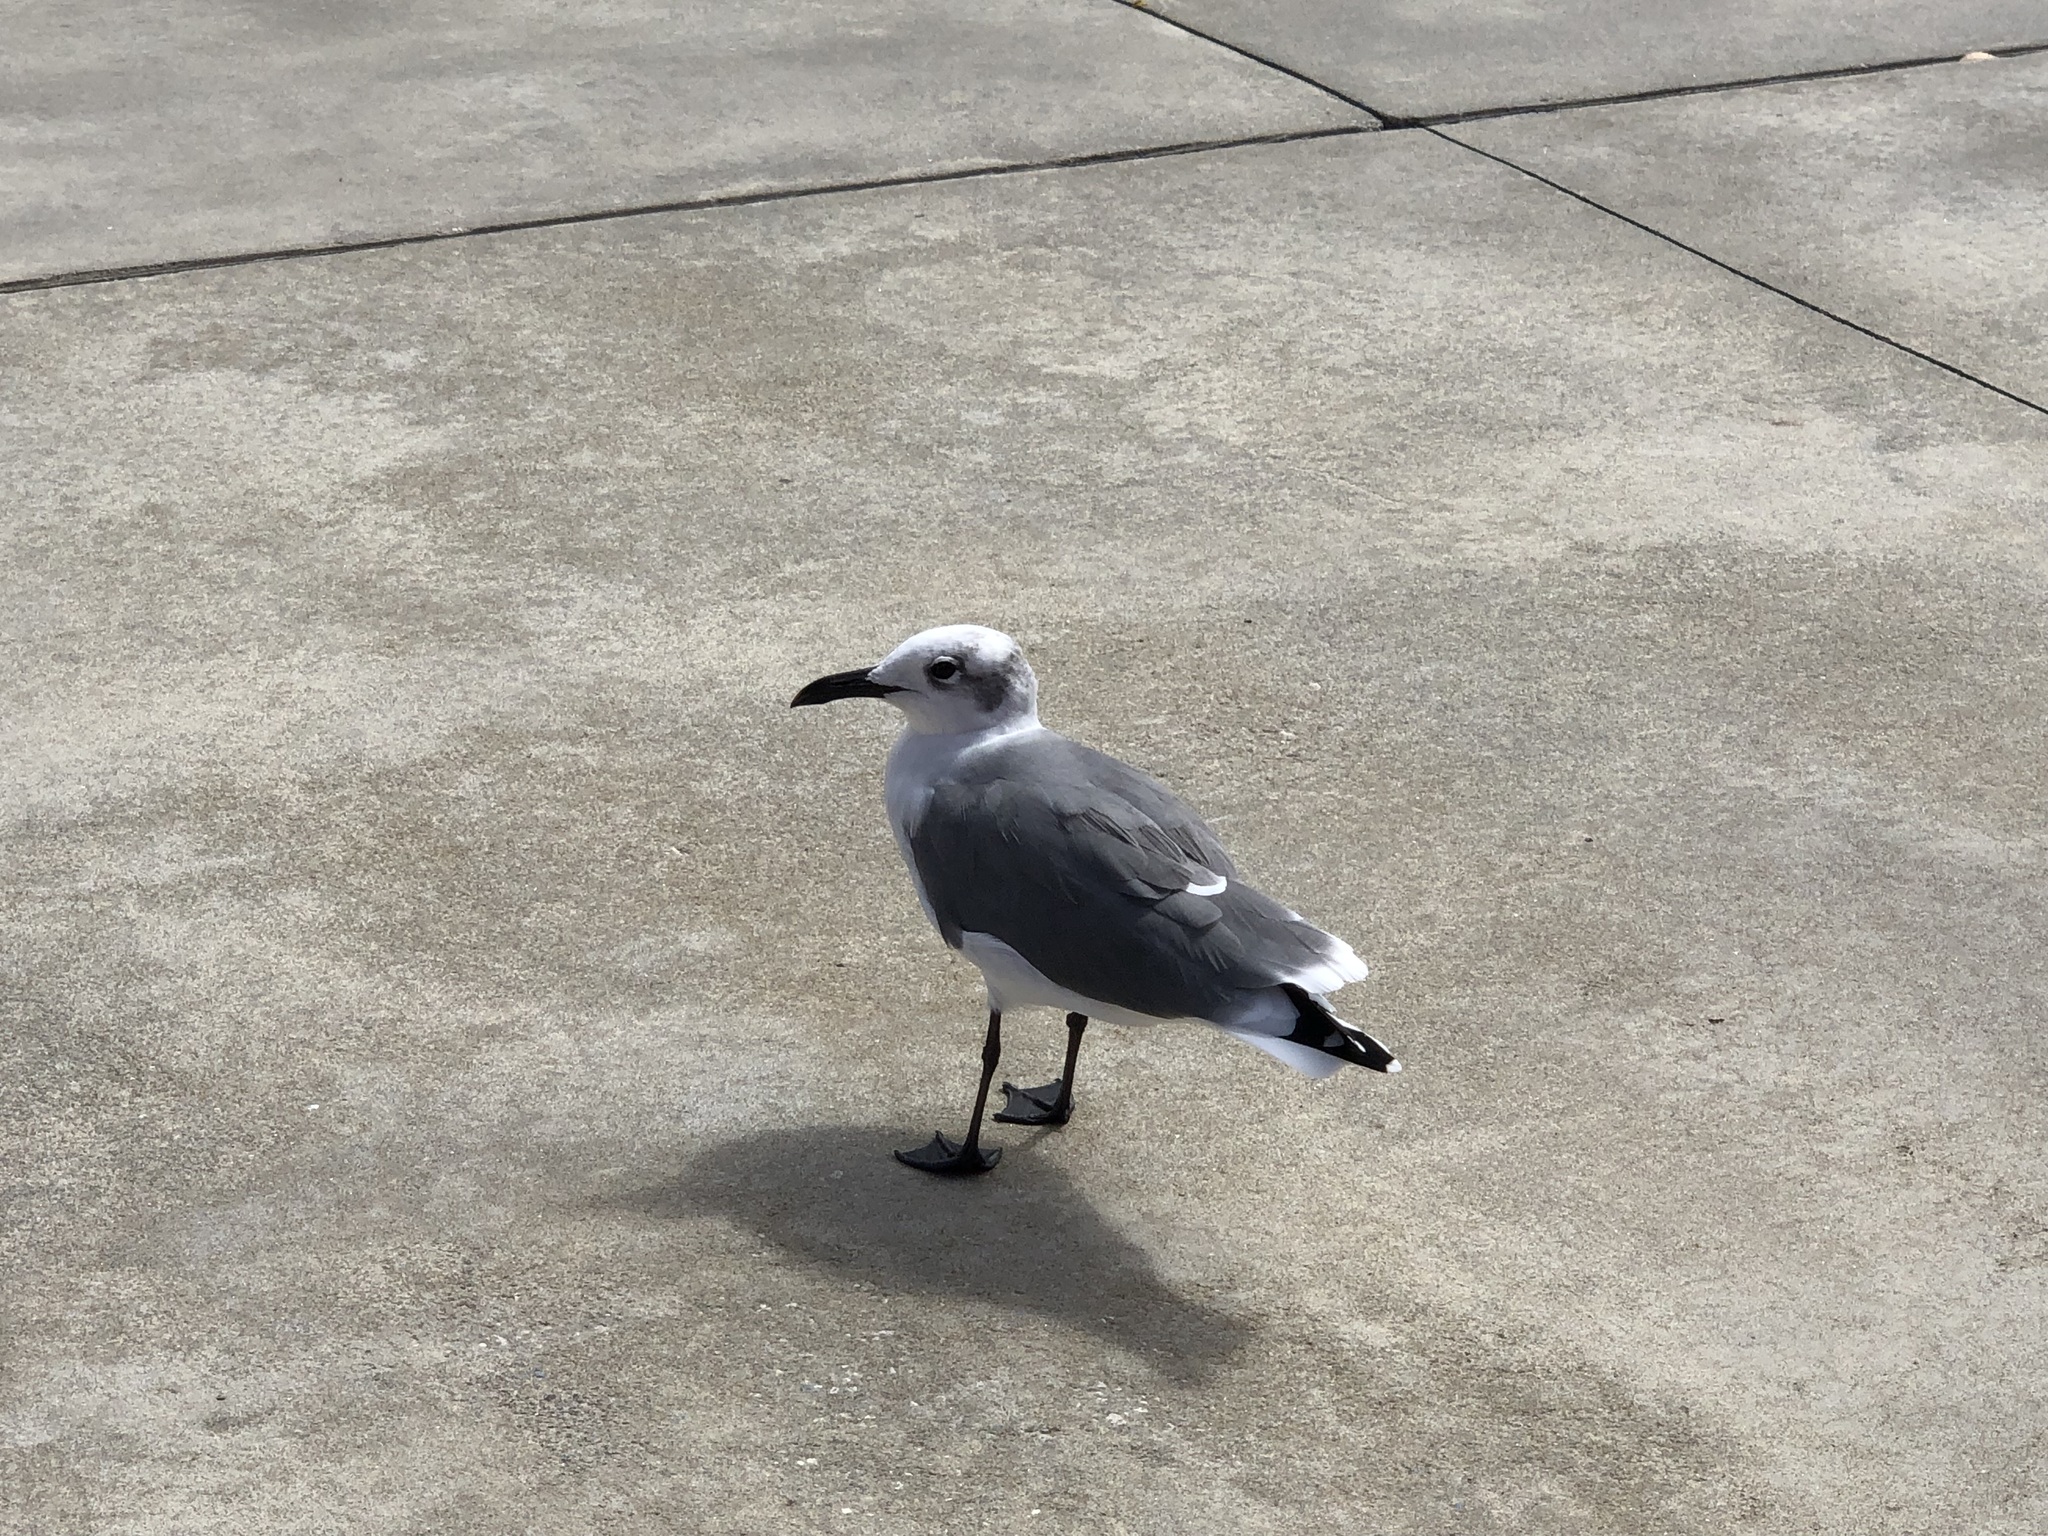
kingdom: Animalia
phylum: Chordata
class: Aves
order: Charadriiformes
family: Laridae
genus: Leucophaeus
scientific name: Leucophaeus atricilla
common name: Laughing gull
